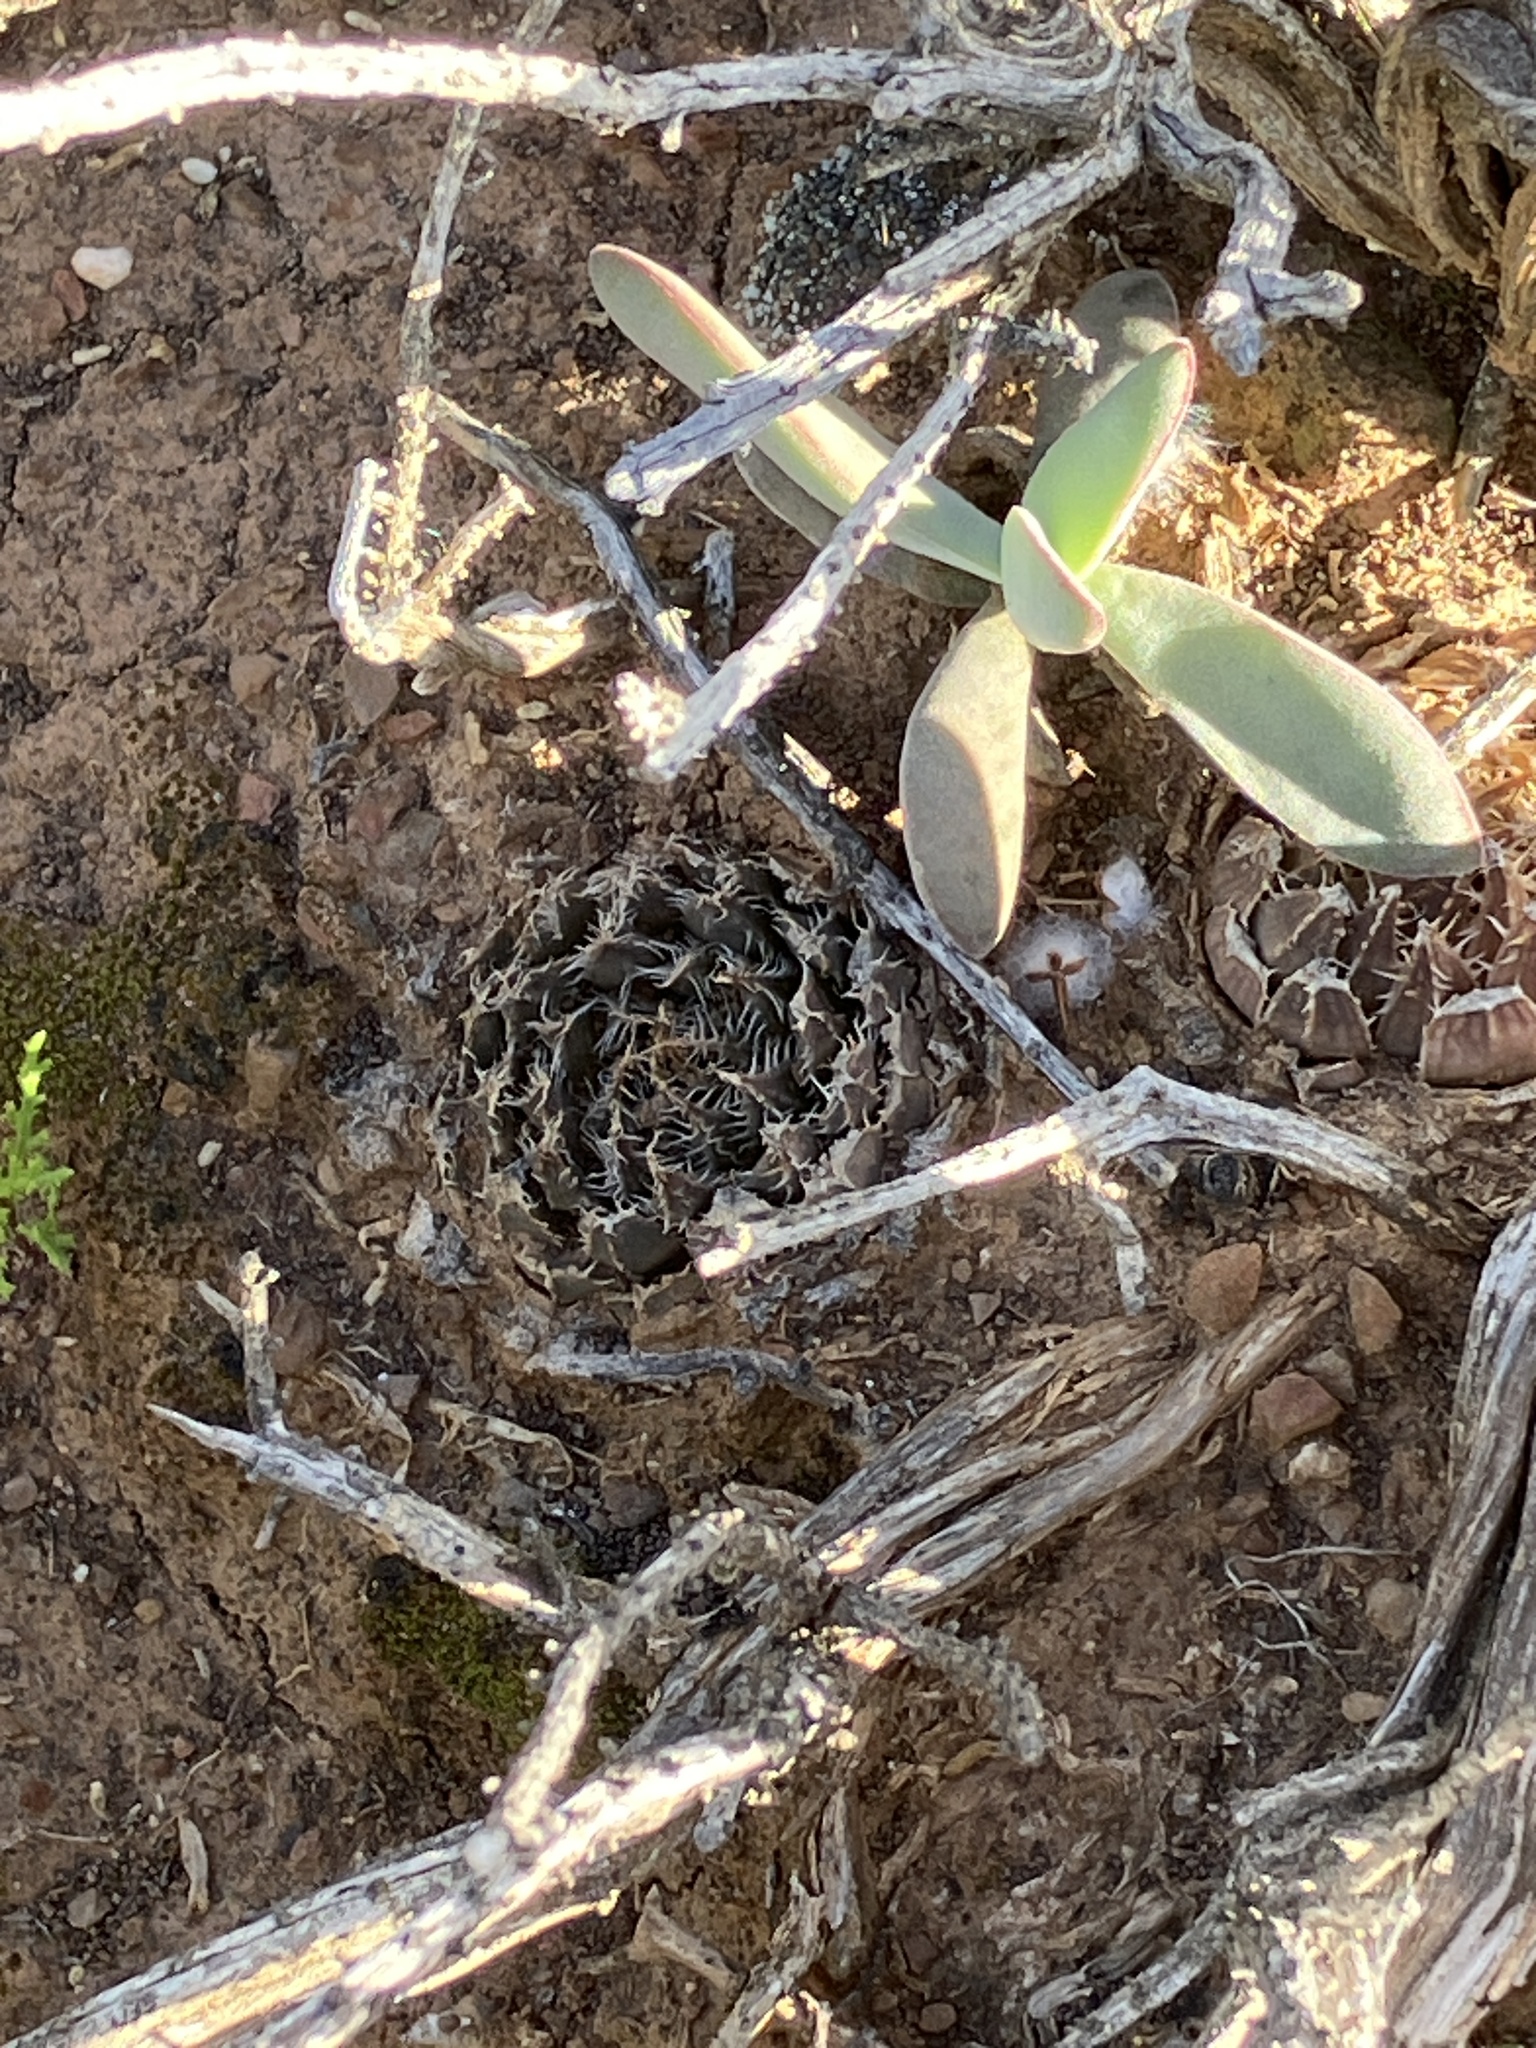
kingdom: Plantae
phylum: Tracheophyta
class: Liliopsida
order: Asparagales
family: Asphodelaceae
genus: Haworthia
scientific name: Haworthia arachnoidea
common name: Cobweb-aloe
